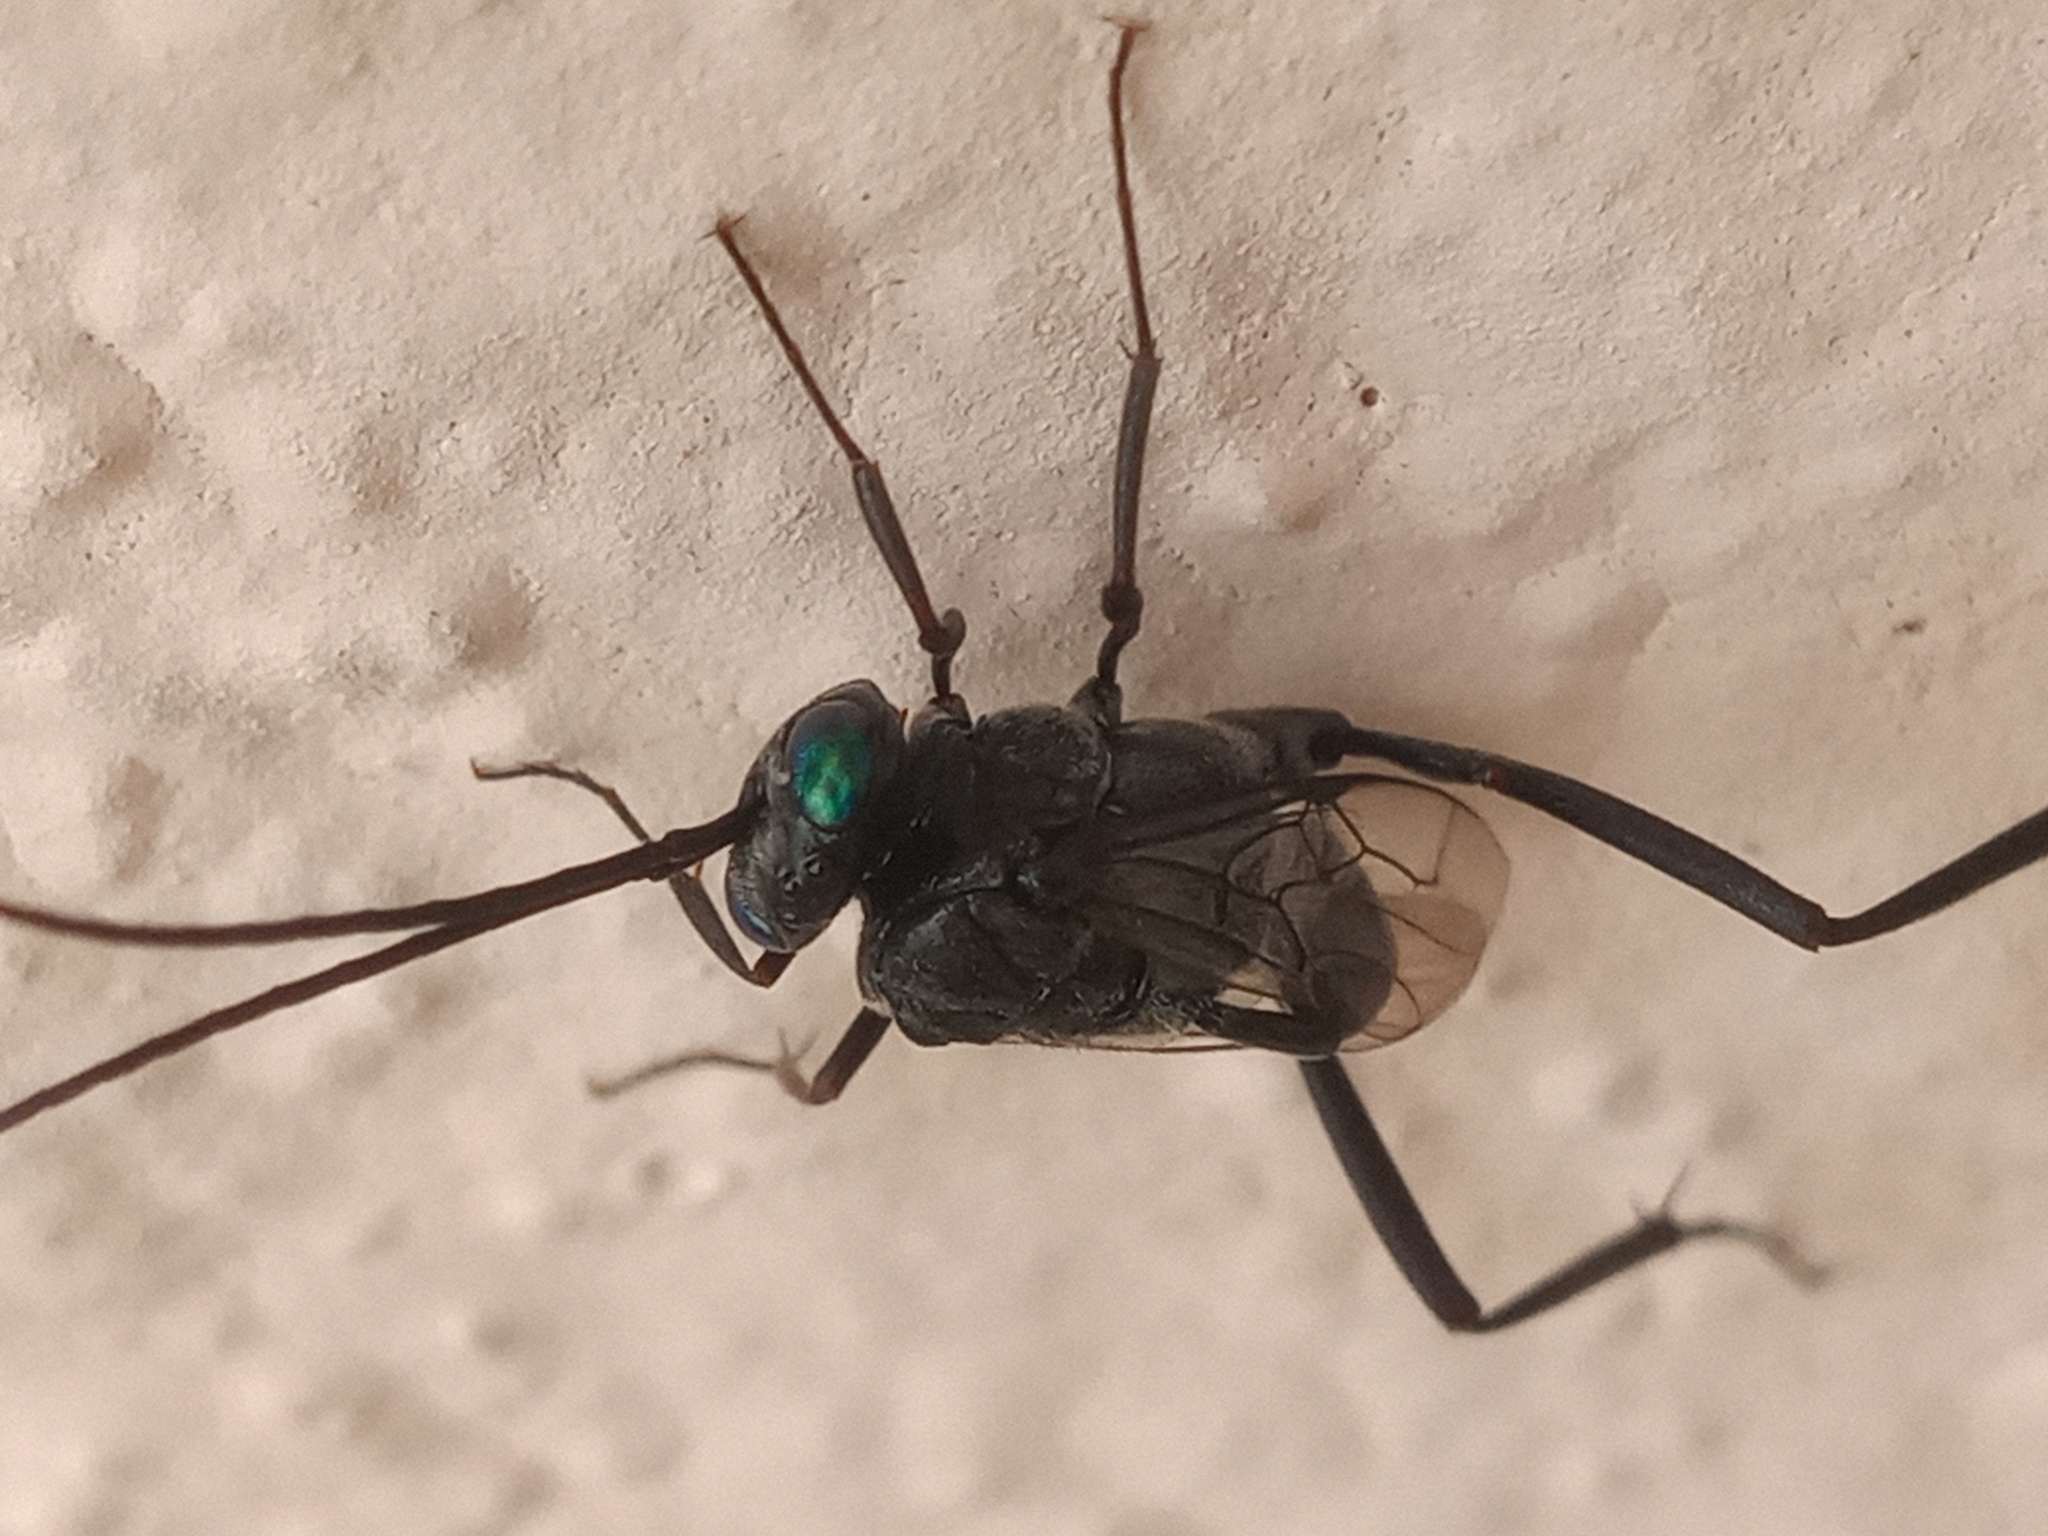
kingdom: Animalia
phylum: Arthropoda
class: Insecta
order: Hymenoptera
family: Evaniidae
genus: Evania
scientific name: Evania appendigaster
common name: Ensign wasp
